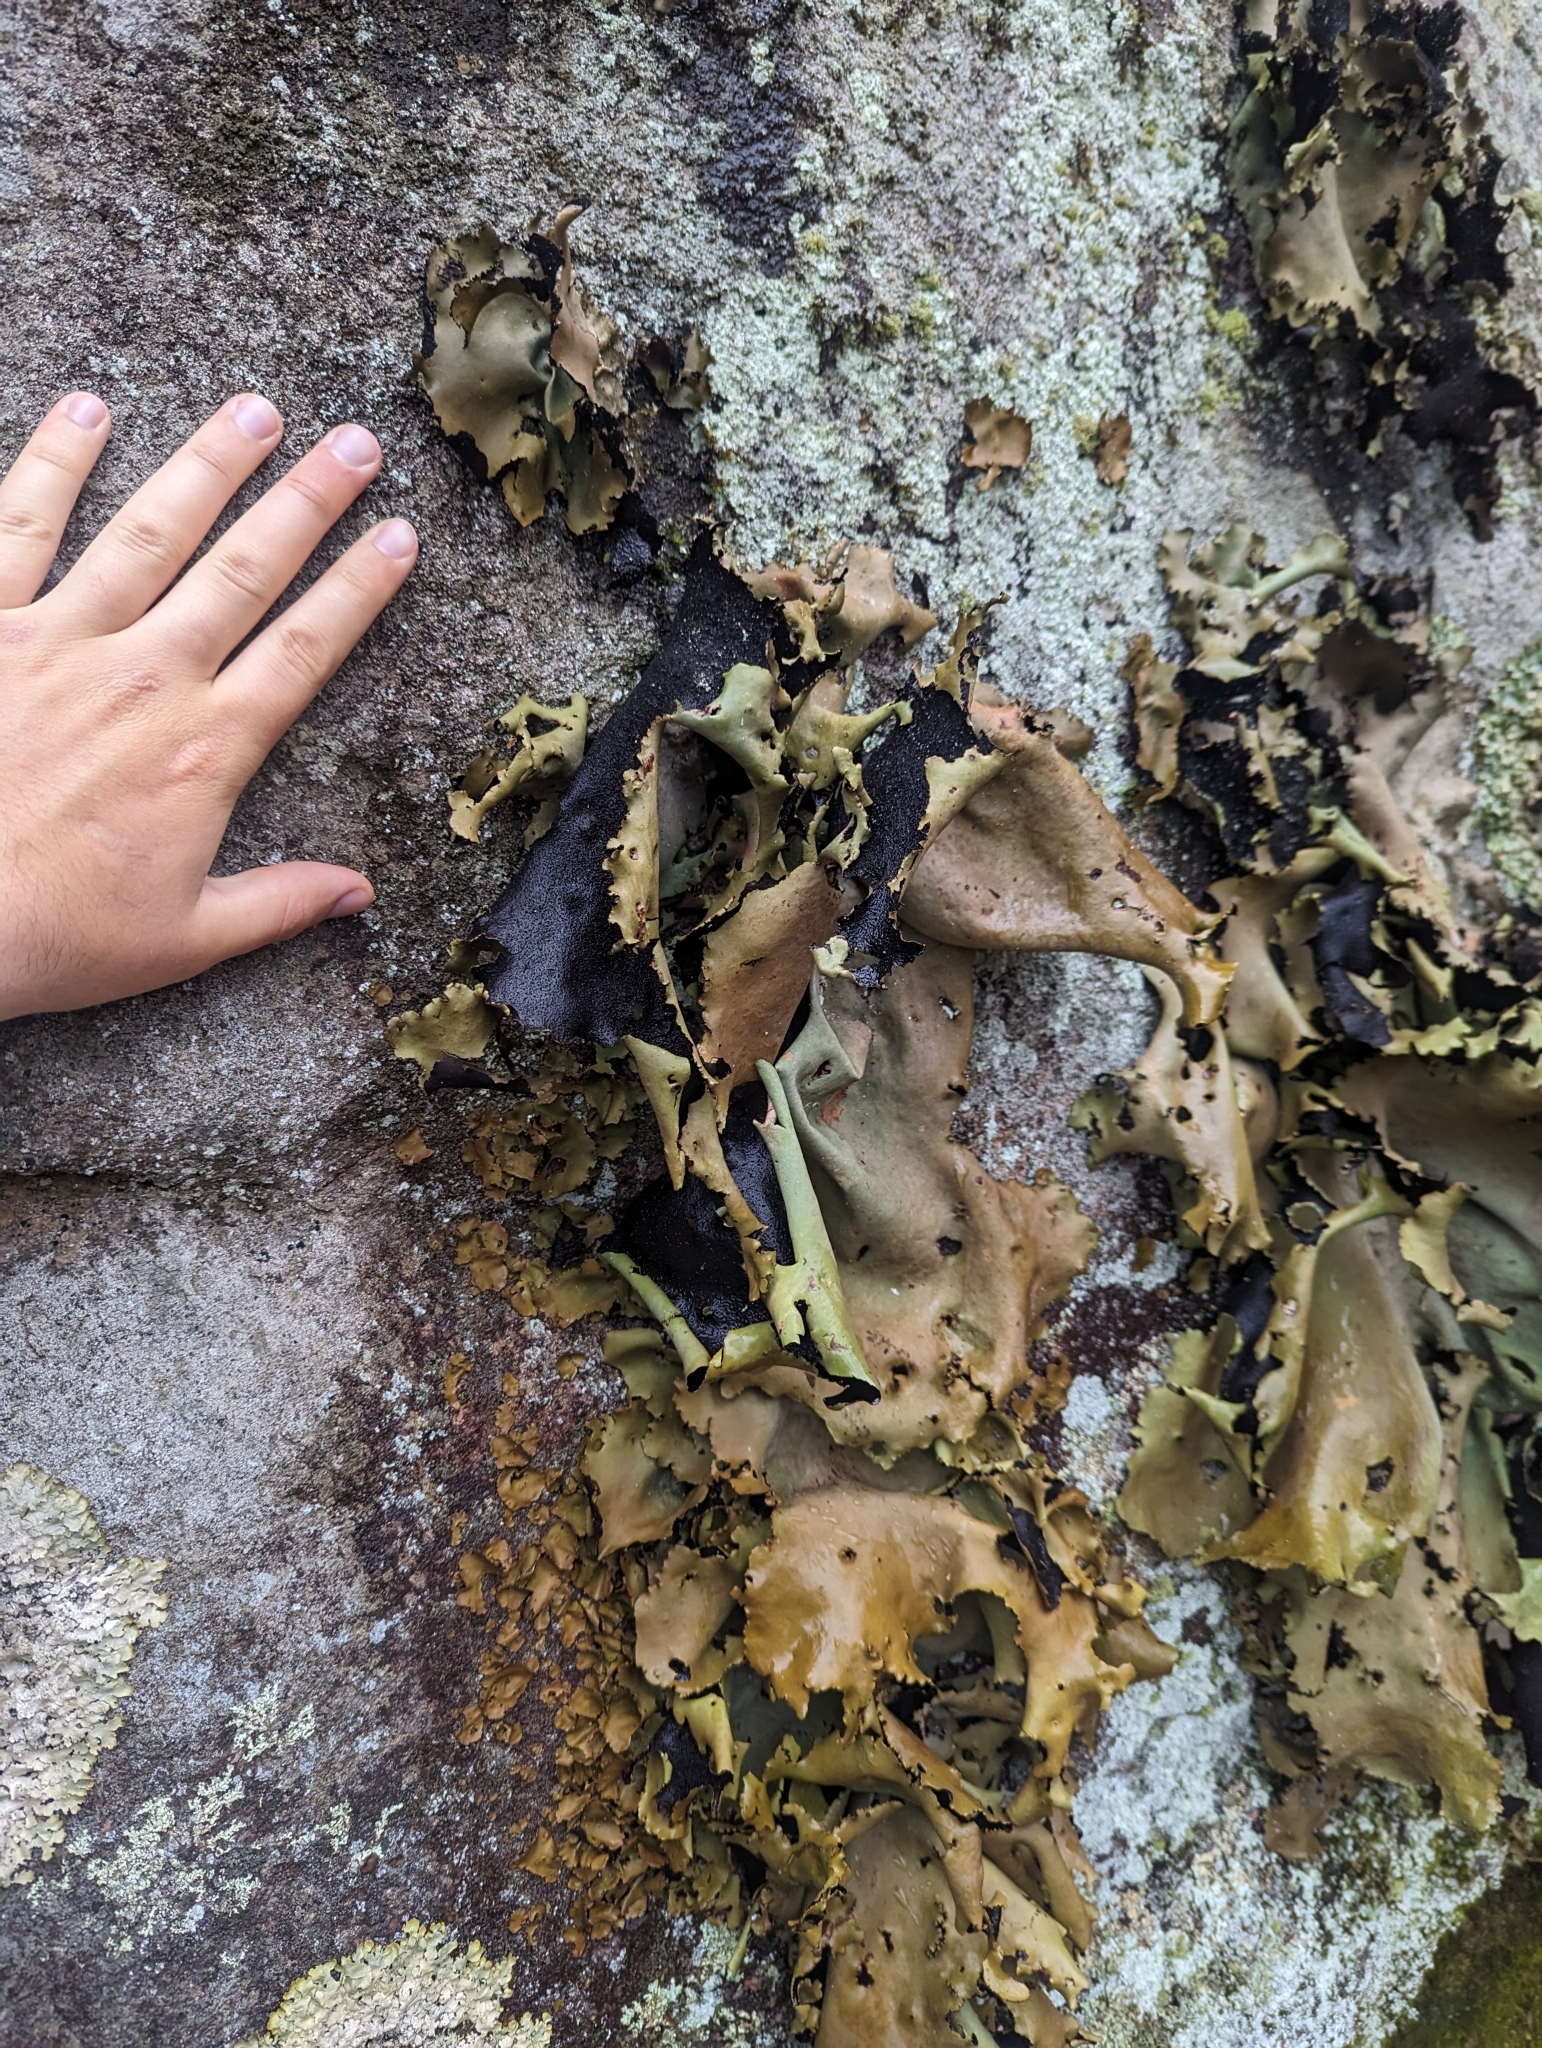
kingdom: Fungi
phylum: Ascomycota
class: Lecanoromycetes
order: Umbilicariales
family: Umbilicariaceae
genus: Umbilicaria
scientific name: Umbilicaria mammulata
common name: Smooth rock tripe
